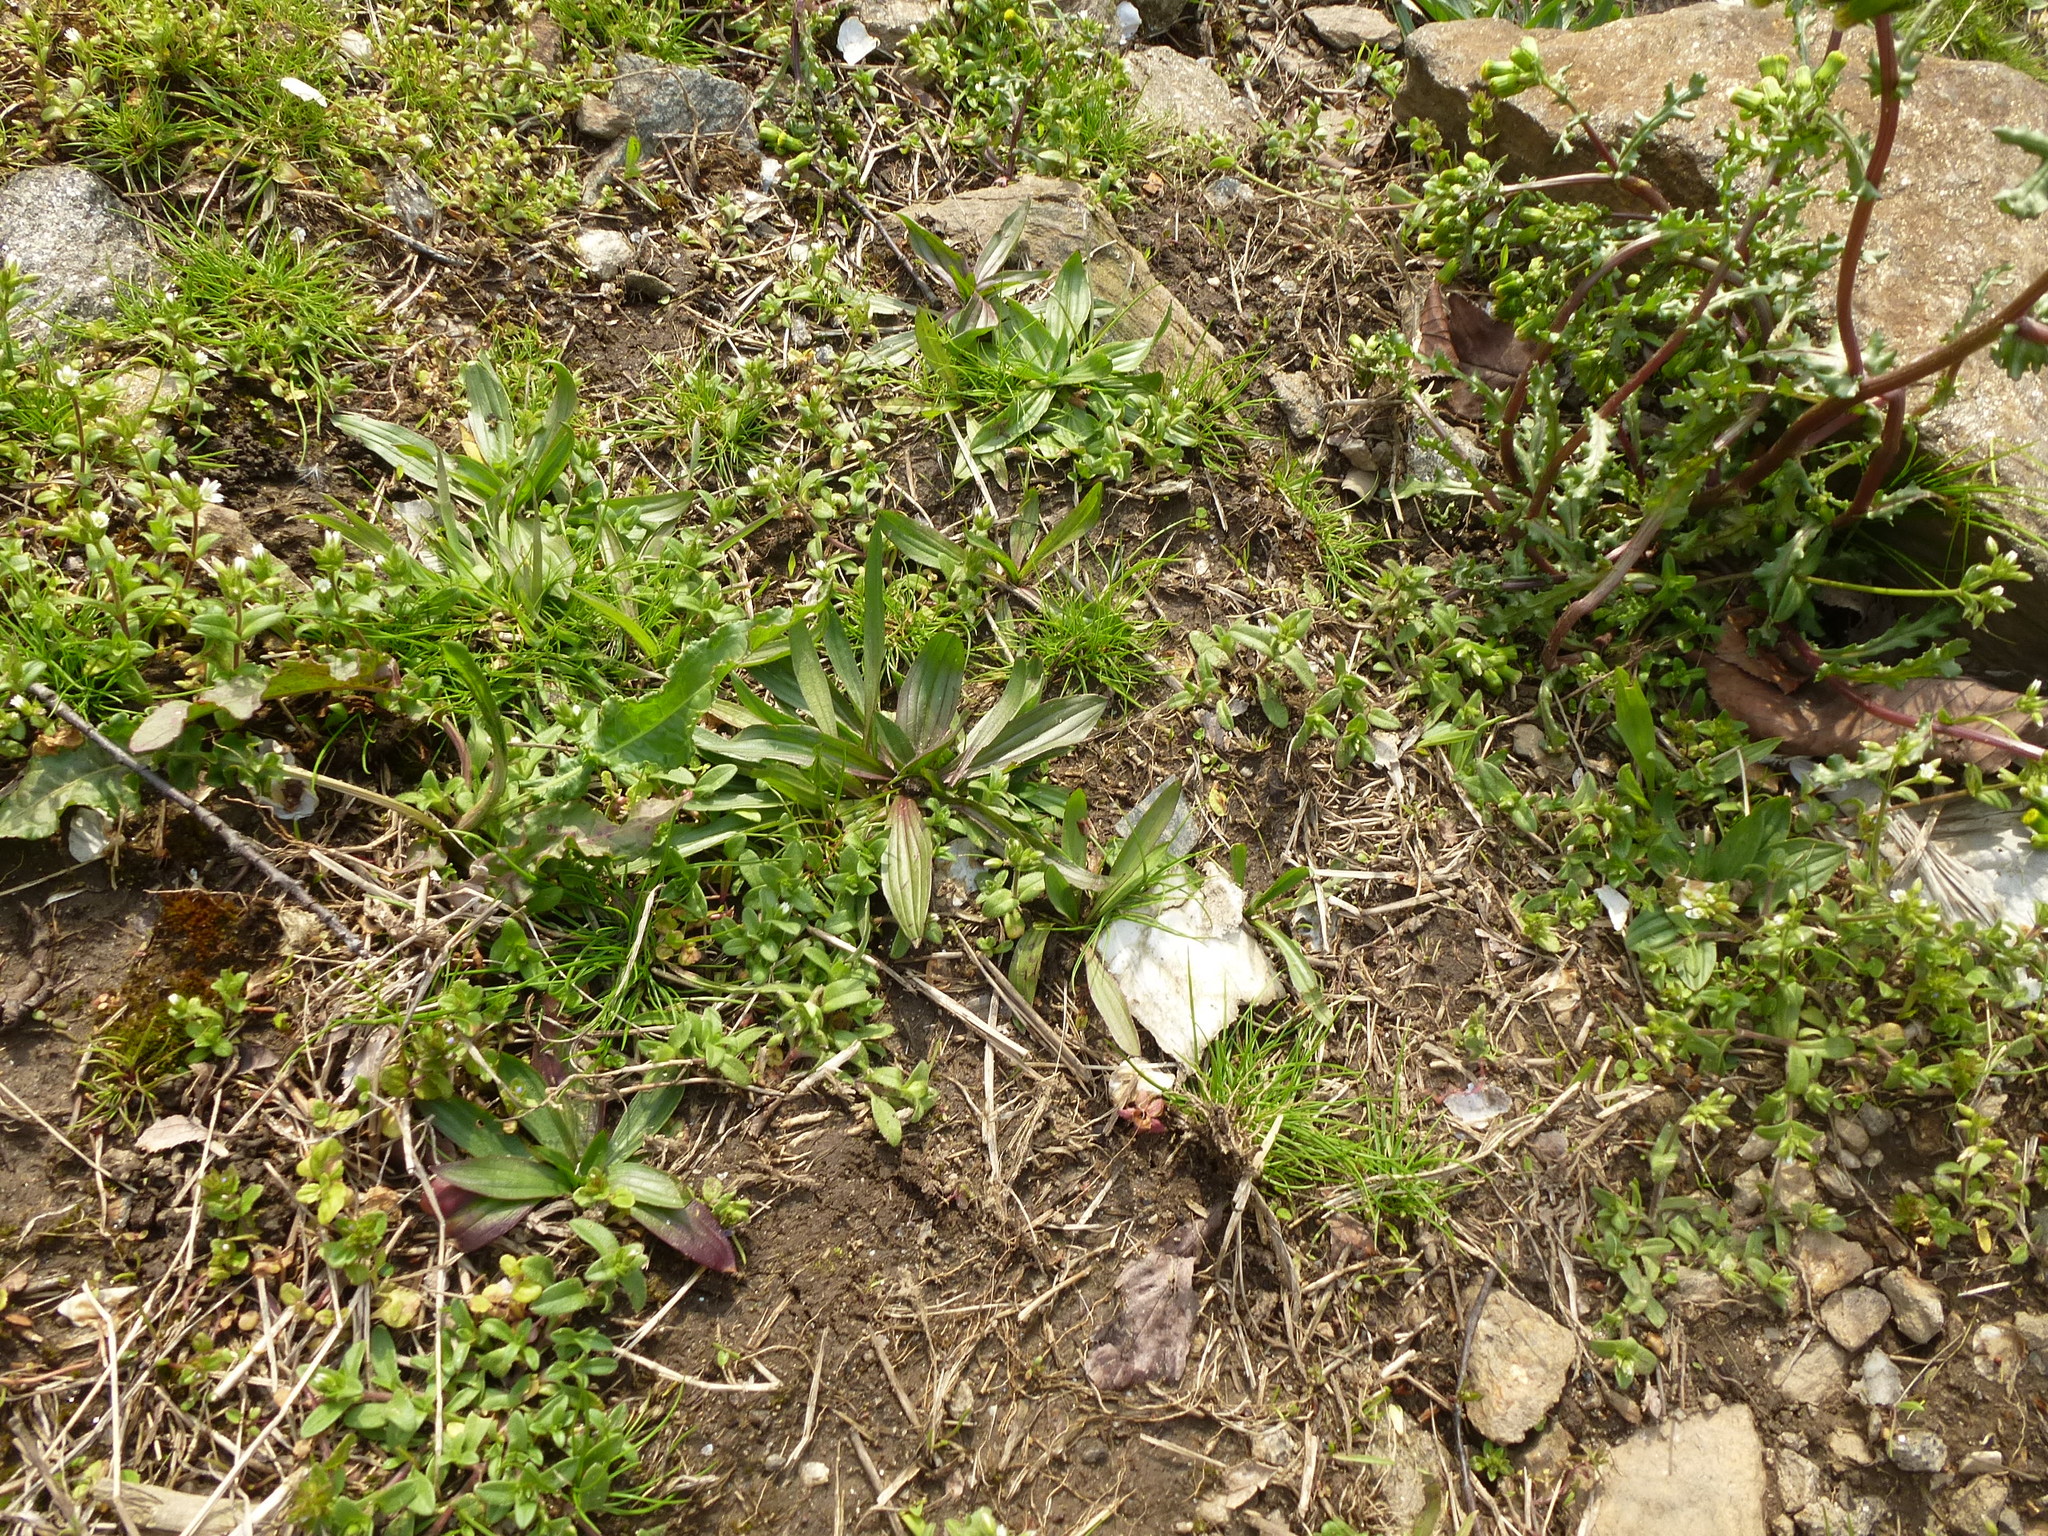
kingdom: Plantae
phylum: Tracheophyta
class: Magnoliopsida
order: Lamiales
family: Plantaginaceae
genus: Plantago
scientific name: Plantago lanceolata
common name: Ribwort plantain
